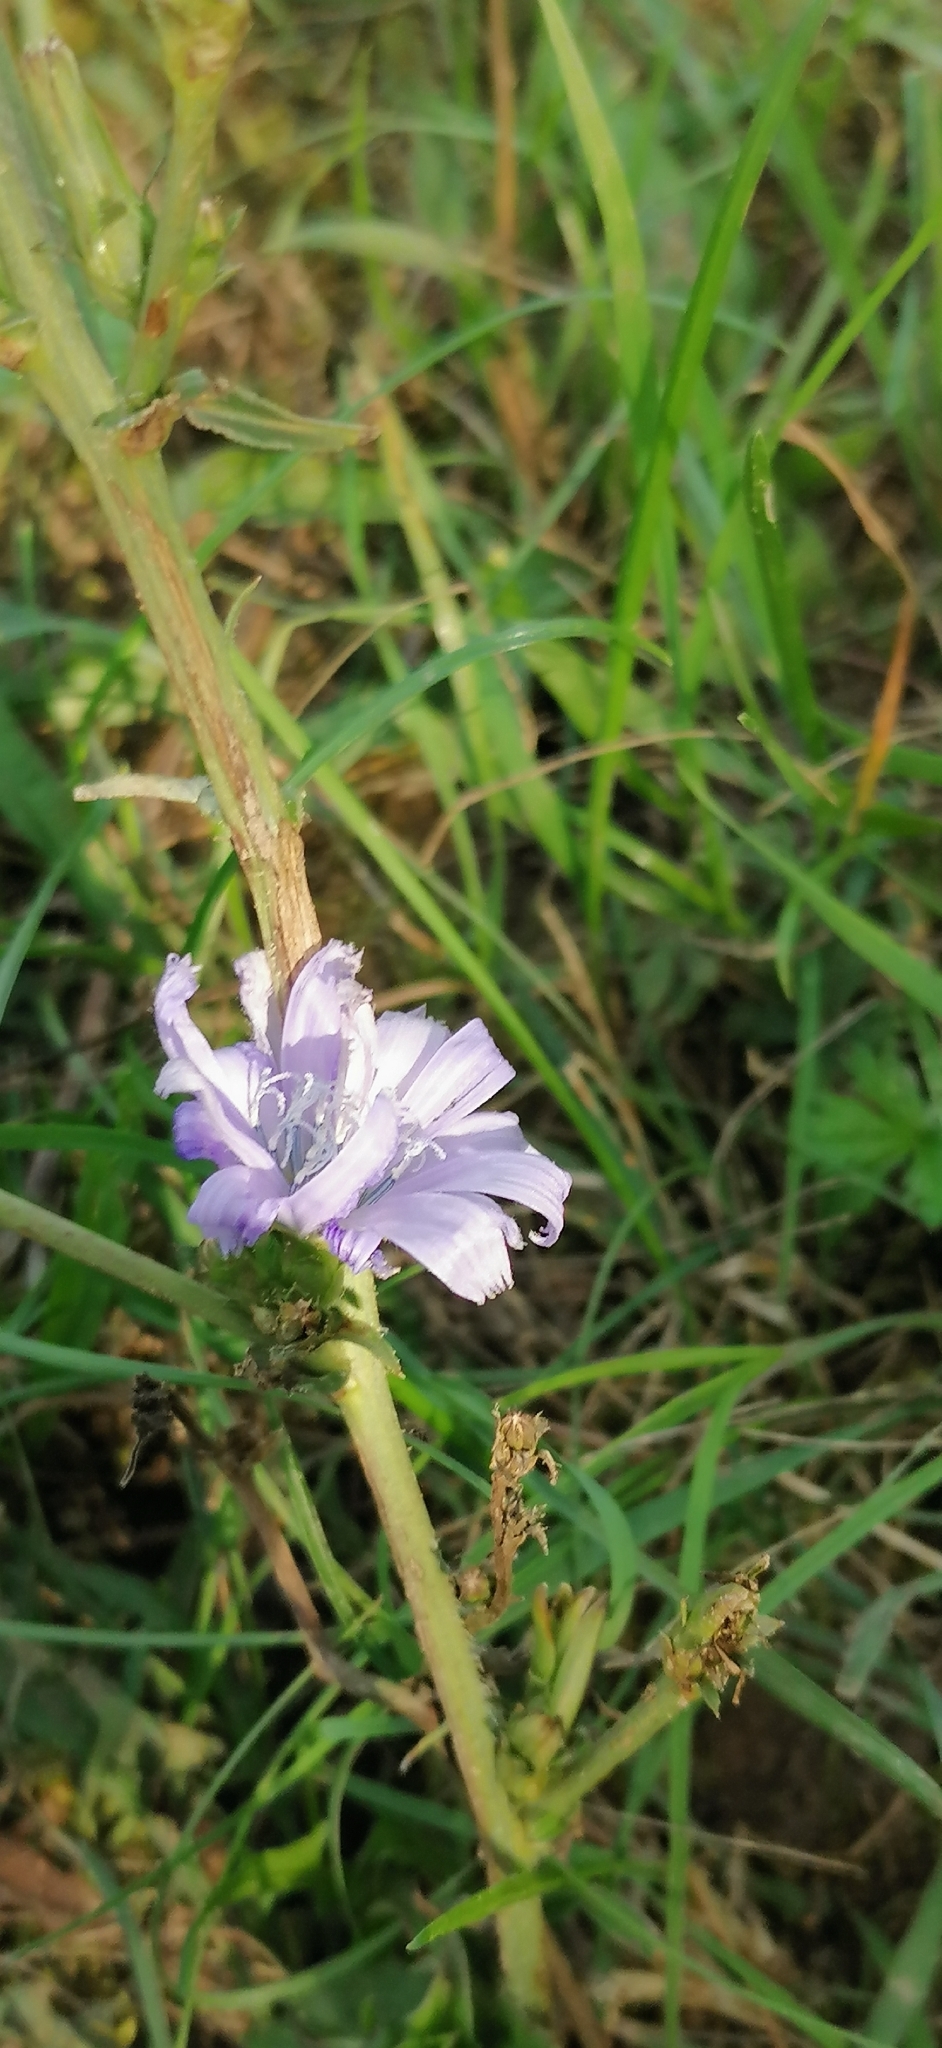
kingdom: Plantae
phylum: Tracheophyta
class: Magnoliopsida
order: Asterales
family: Asteraceae
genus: Cichorium
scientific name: Cichorium intybus
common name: Chicory
